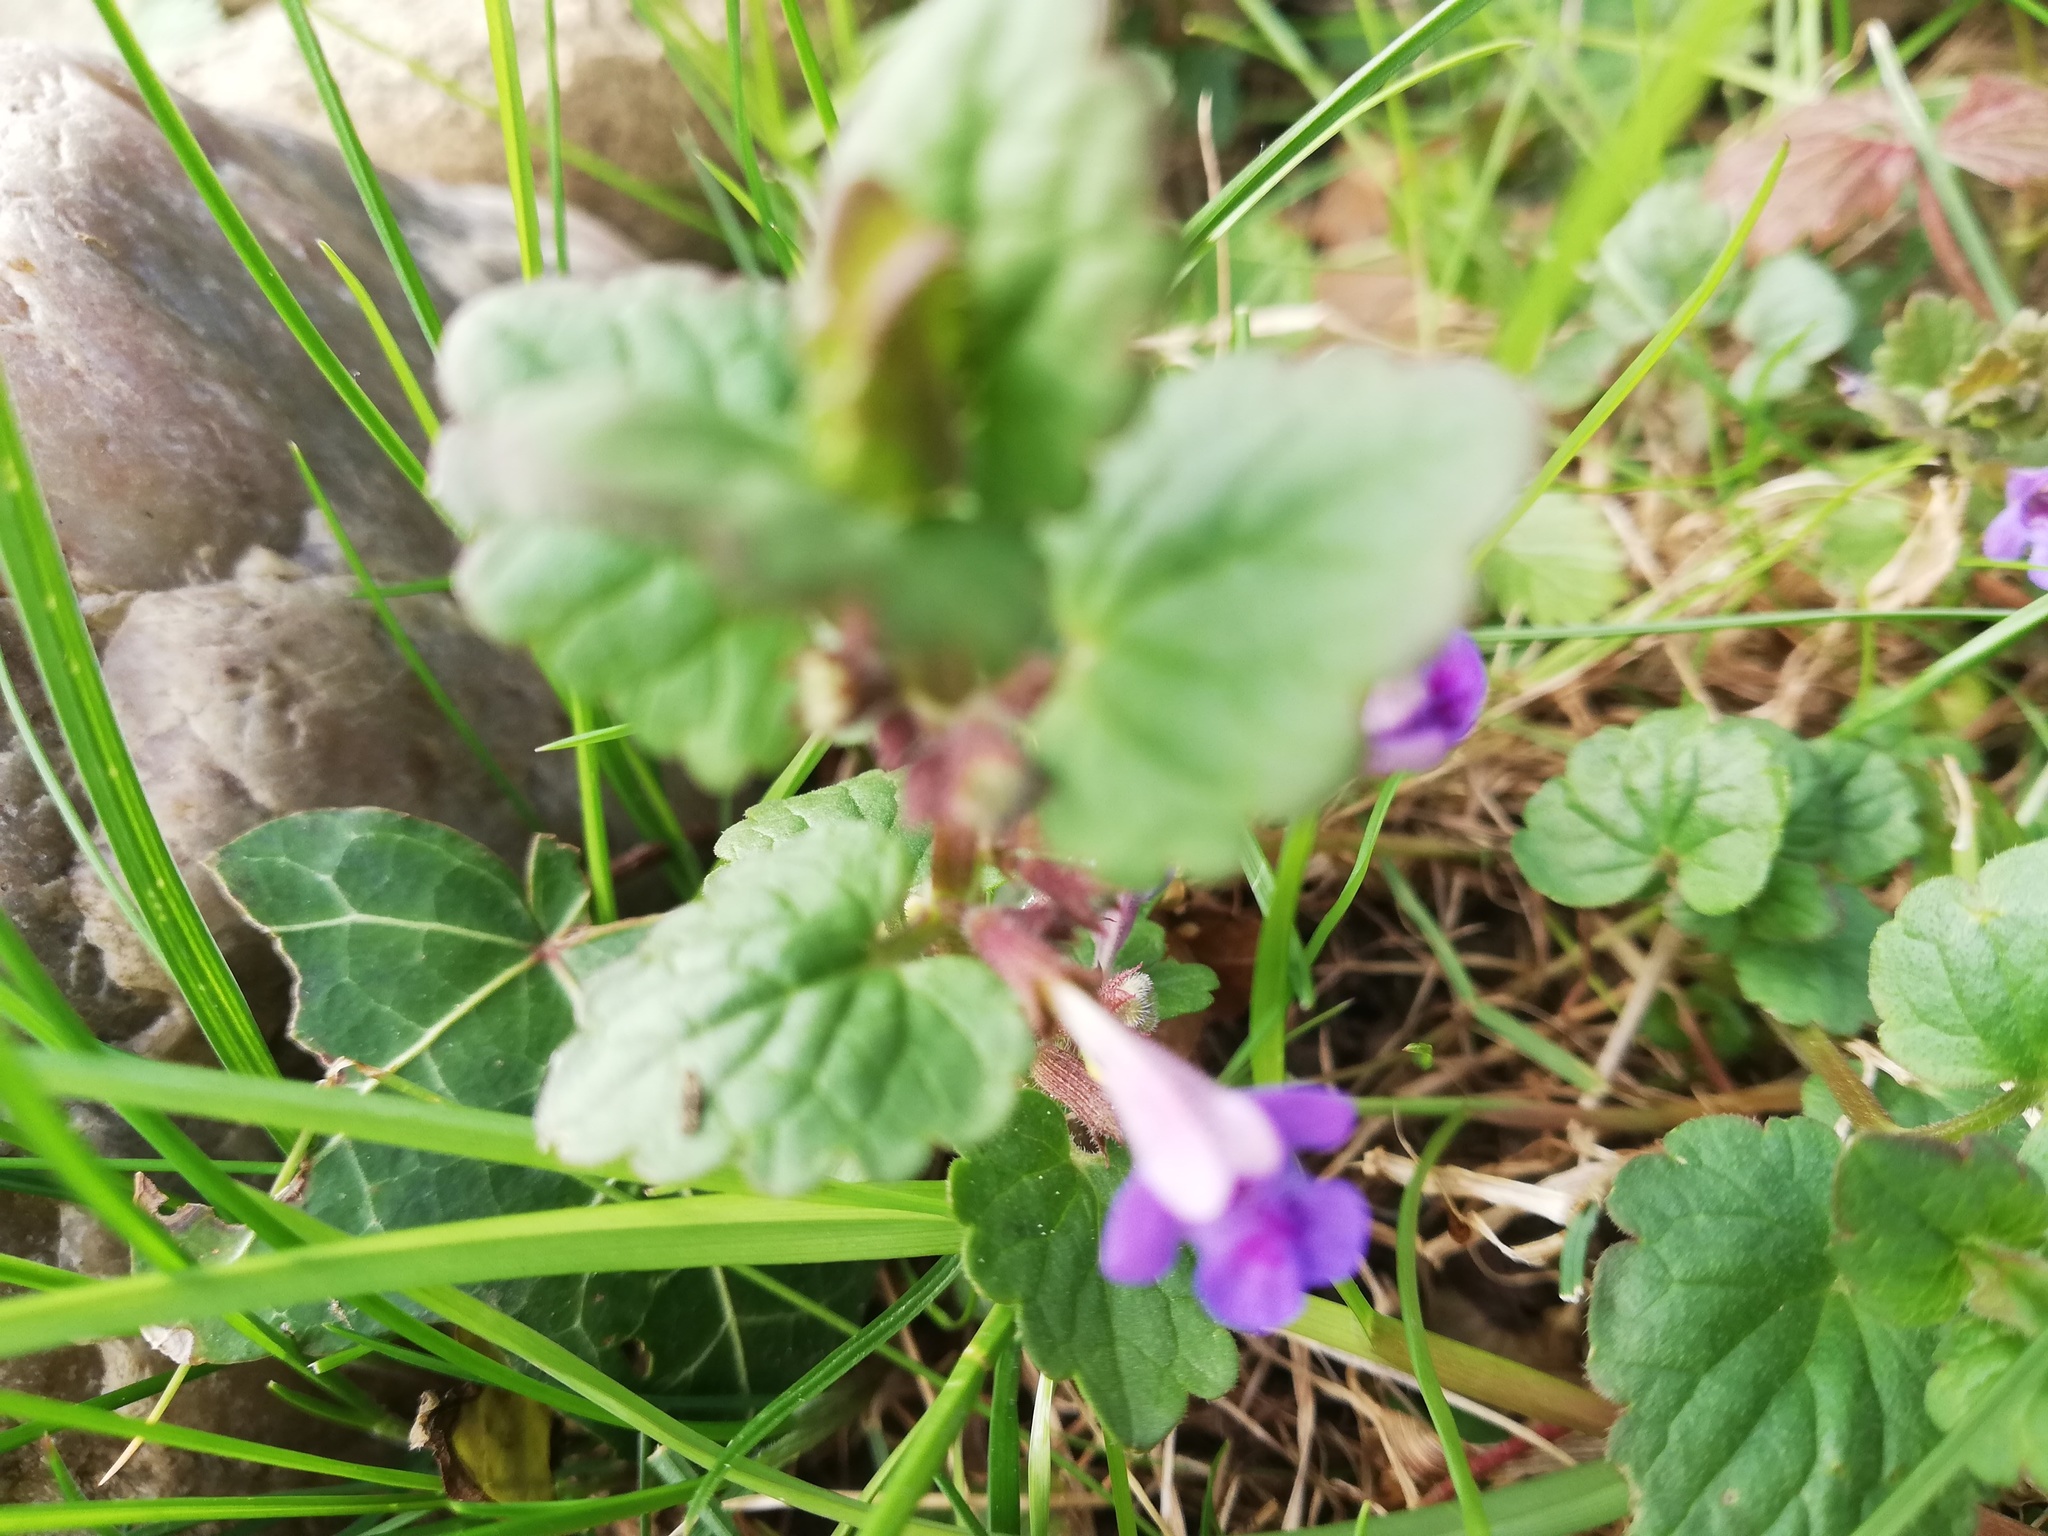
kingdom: Plantae
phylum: Tracheophyta
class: Magnoliopsida
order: Lamiales
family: Lamiaceae
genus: Glechoma
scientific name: Glechoma hederacea
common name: Ground ivy
